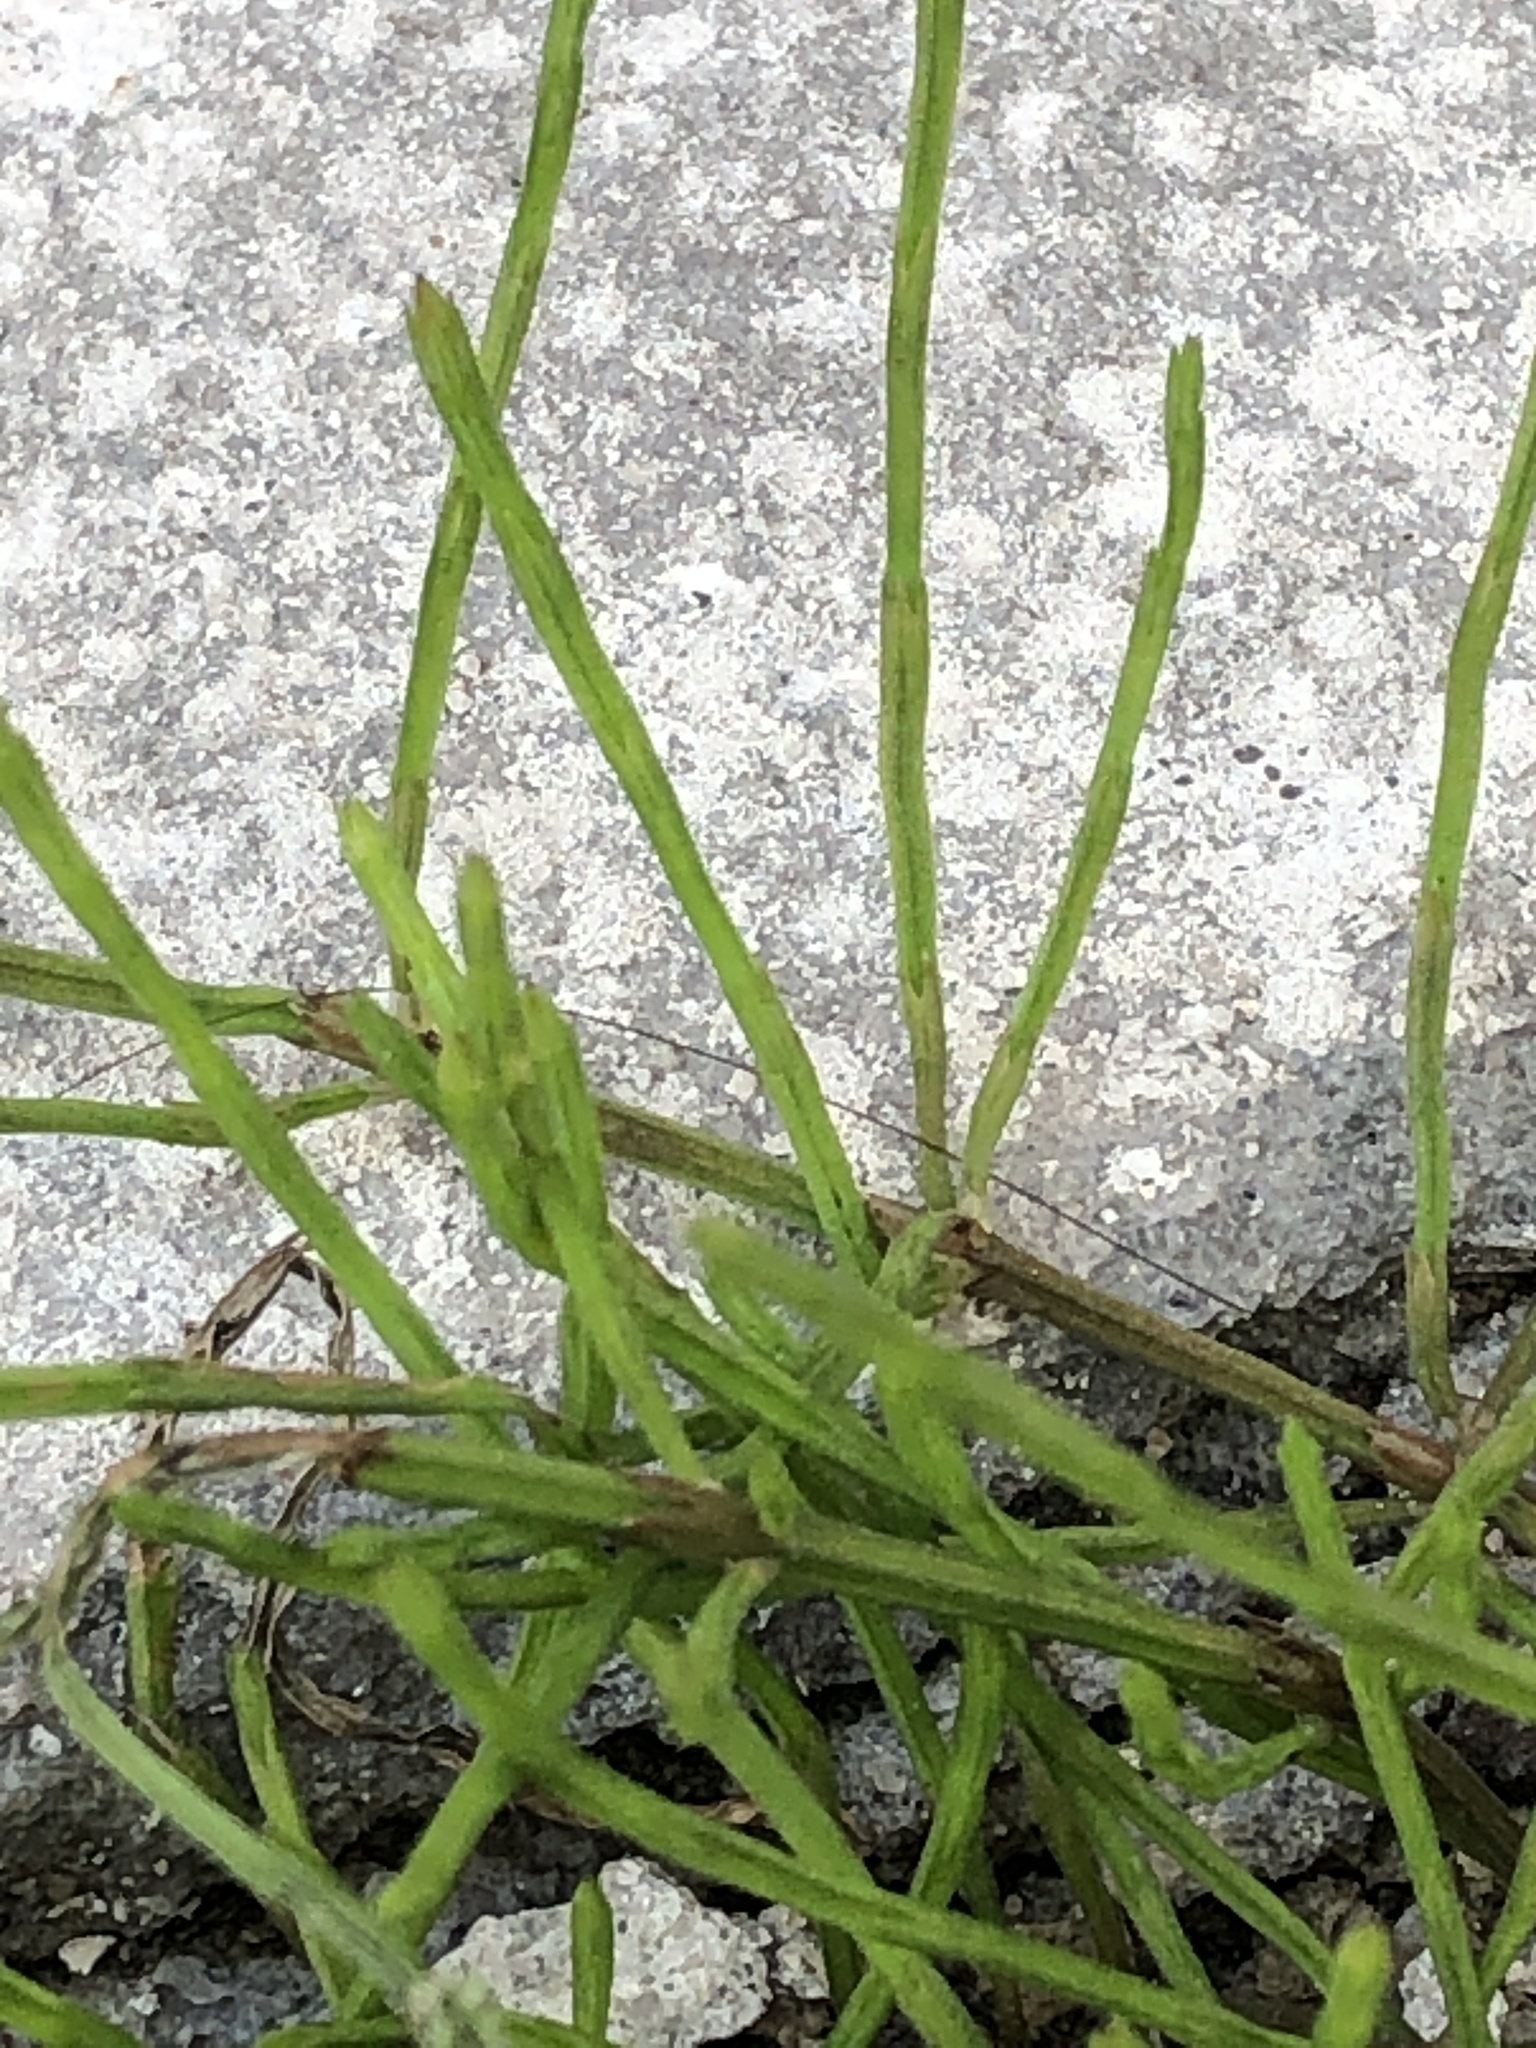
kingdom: Plantae
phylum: Tracheophyta
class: Polypodiopsida
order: Equisetales
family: Equisetaceae
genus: Equisetum
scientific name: Equisetum arvense
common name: Field horsetail
